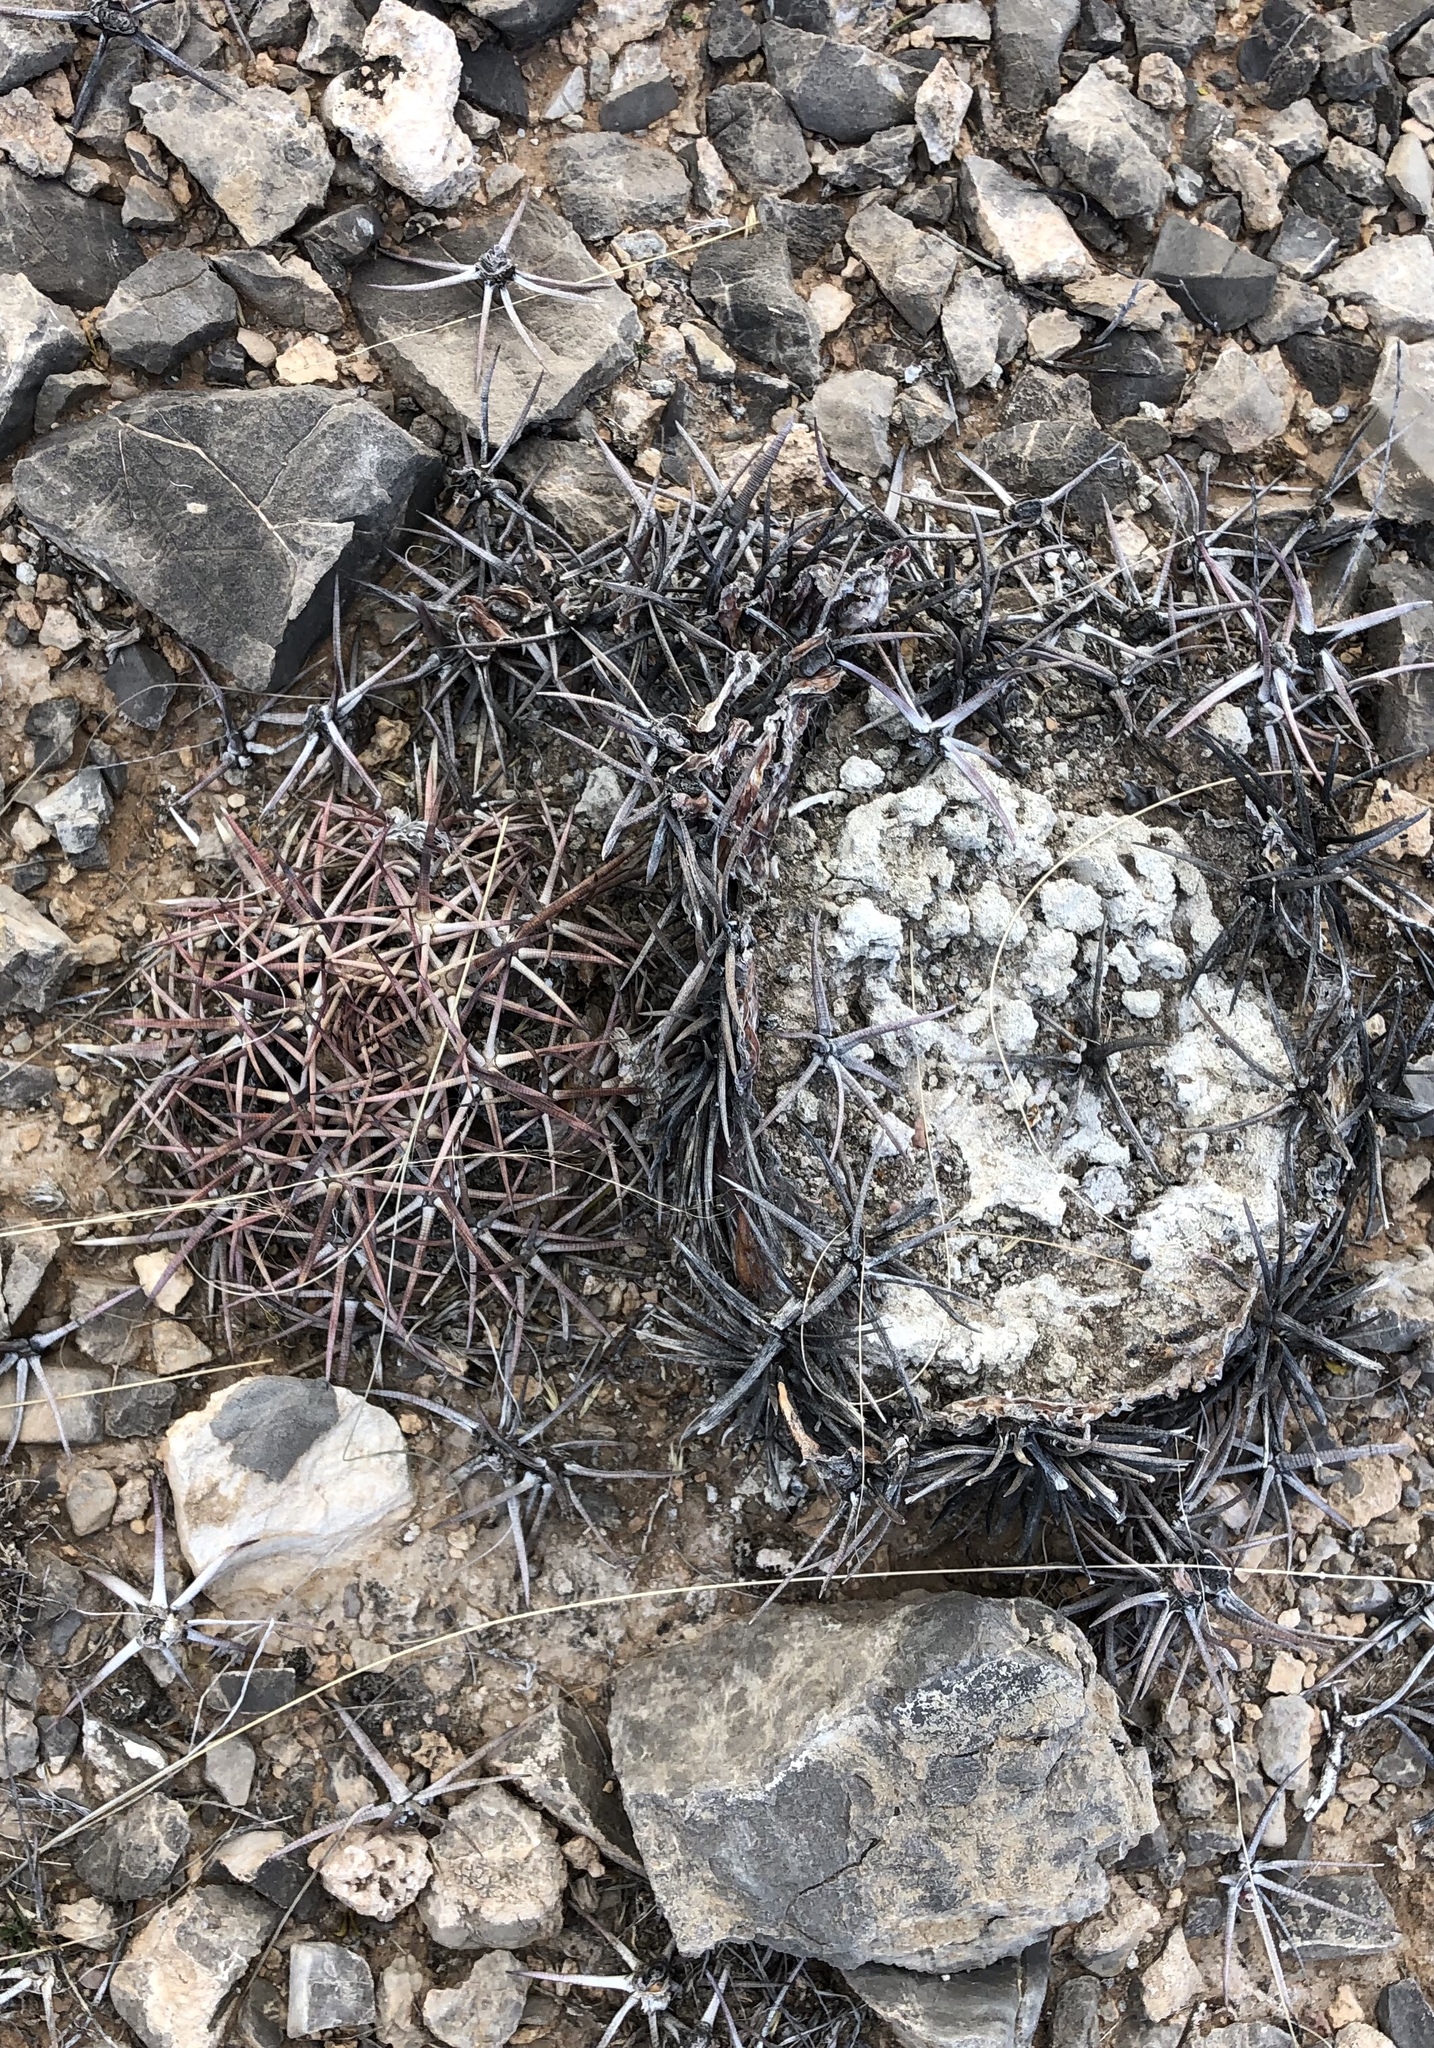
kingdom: Plantae
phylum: Tracheophyta
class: Magnoliopsida
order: Caryophyllales
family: Cactaceae
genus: Echinocactus
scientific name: Echinocactus horizonthalonius
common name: Devilshead
